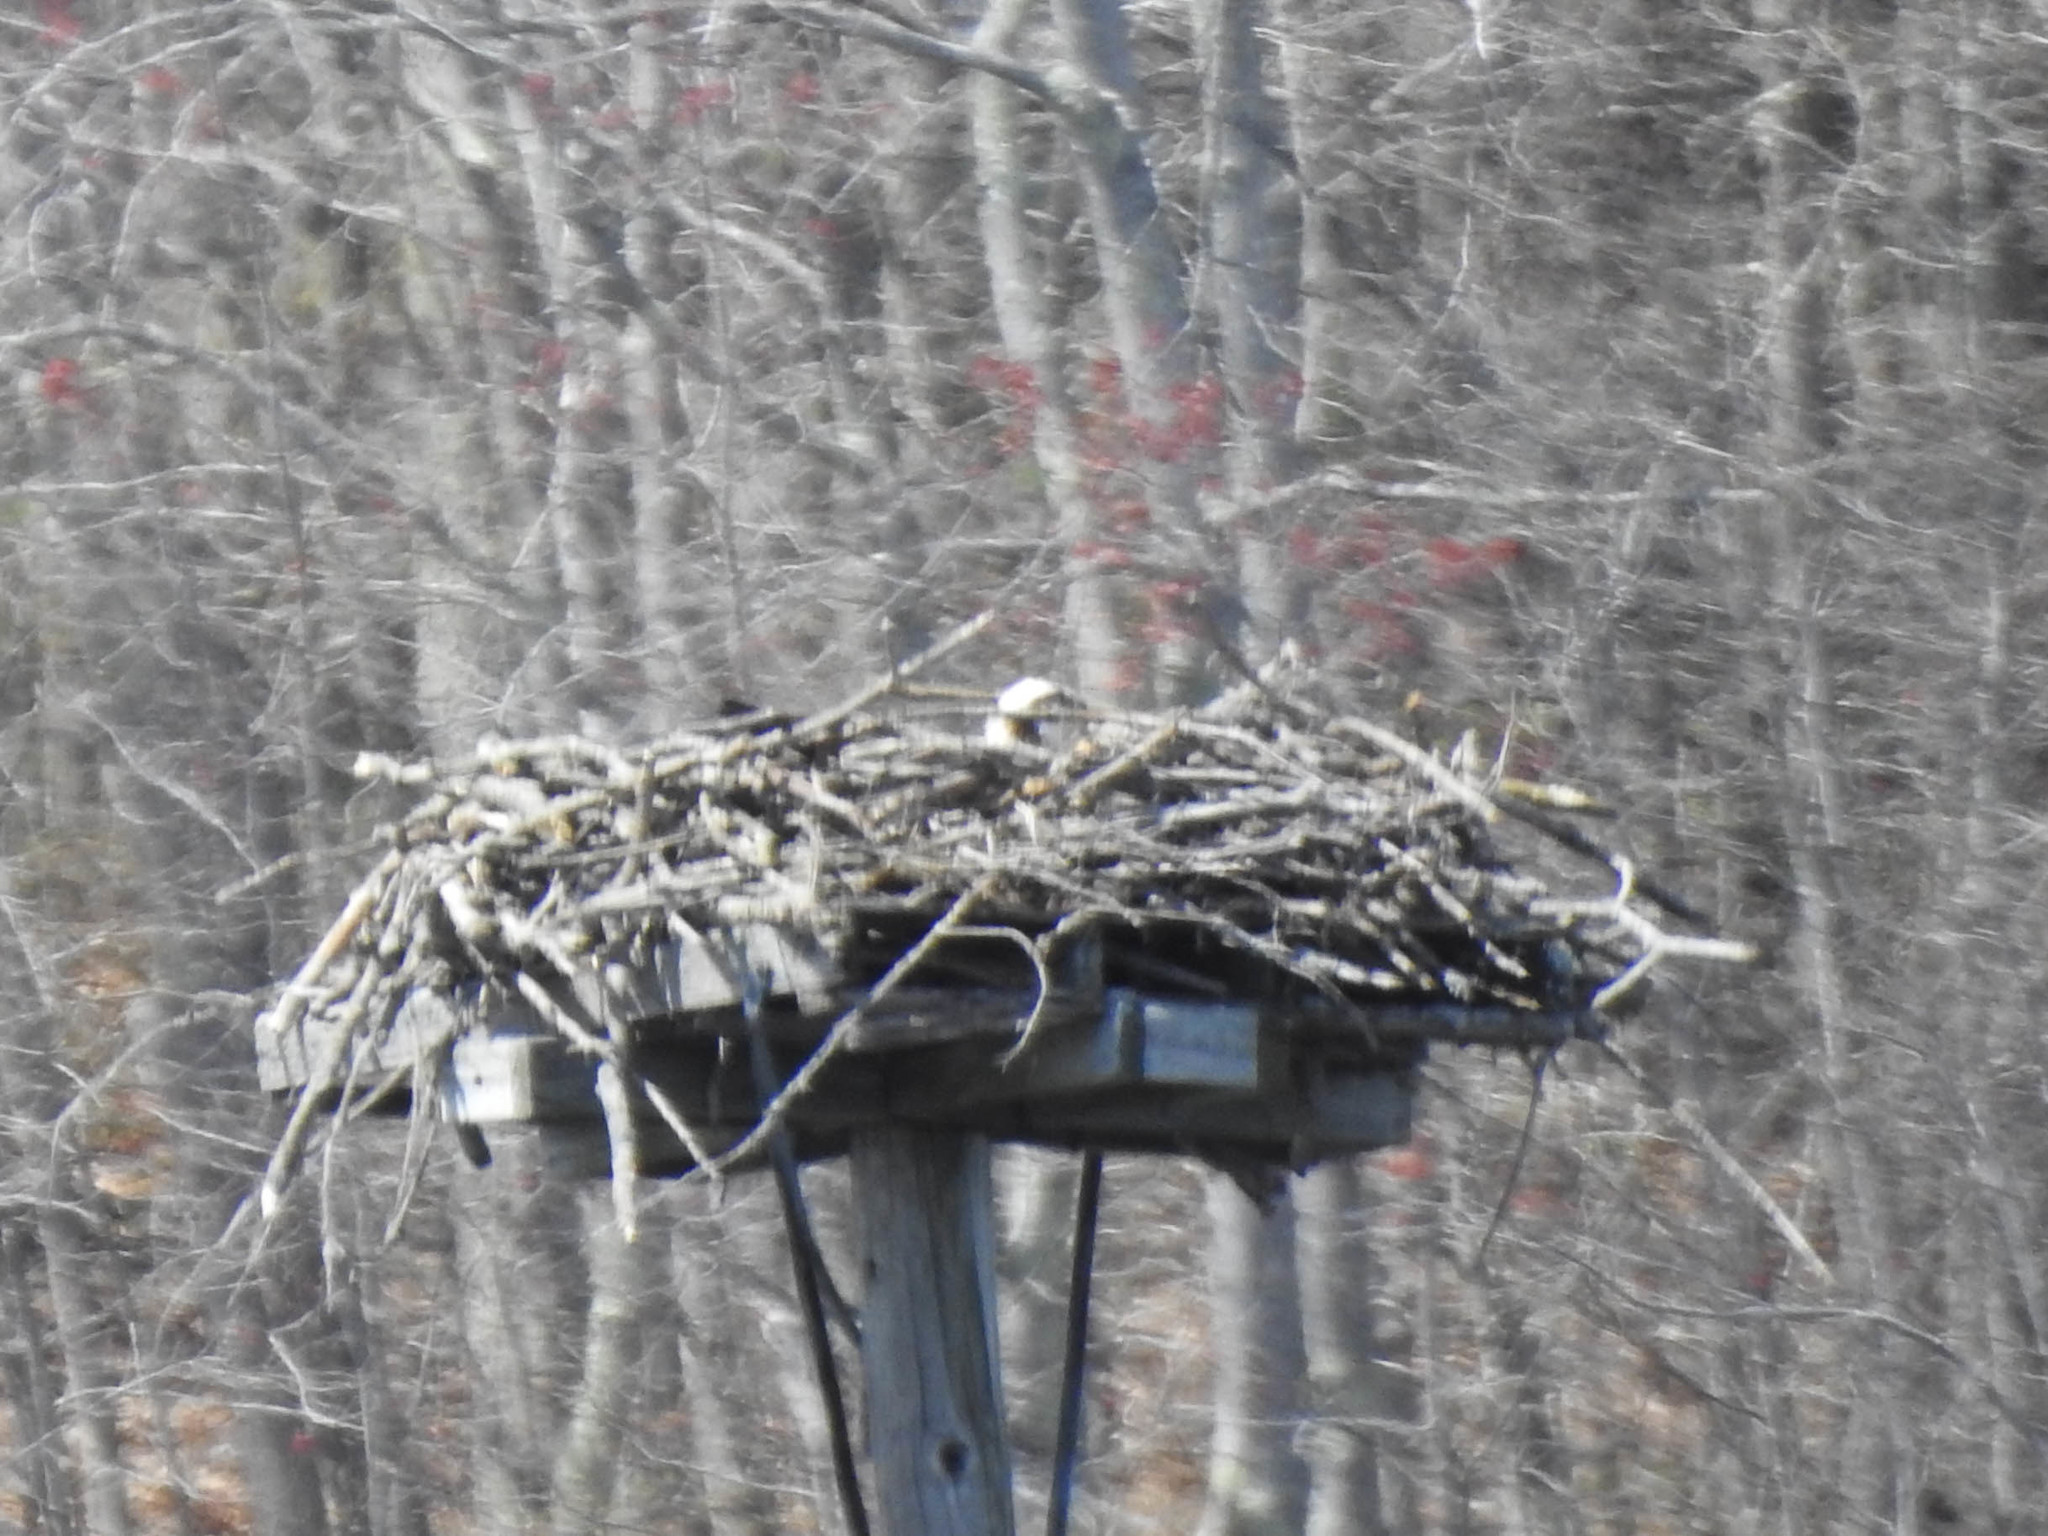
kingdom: Animalia
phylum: Chordata
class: Aves
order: Accipitriformes
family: Pandionidae
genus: Pandion
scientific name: Pandion haliaetus
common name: Osprey
